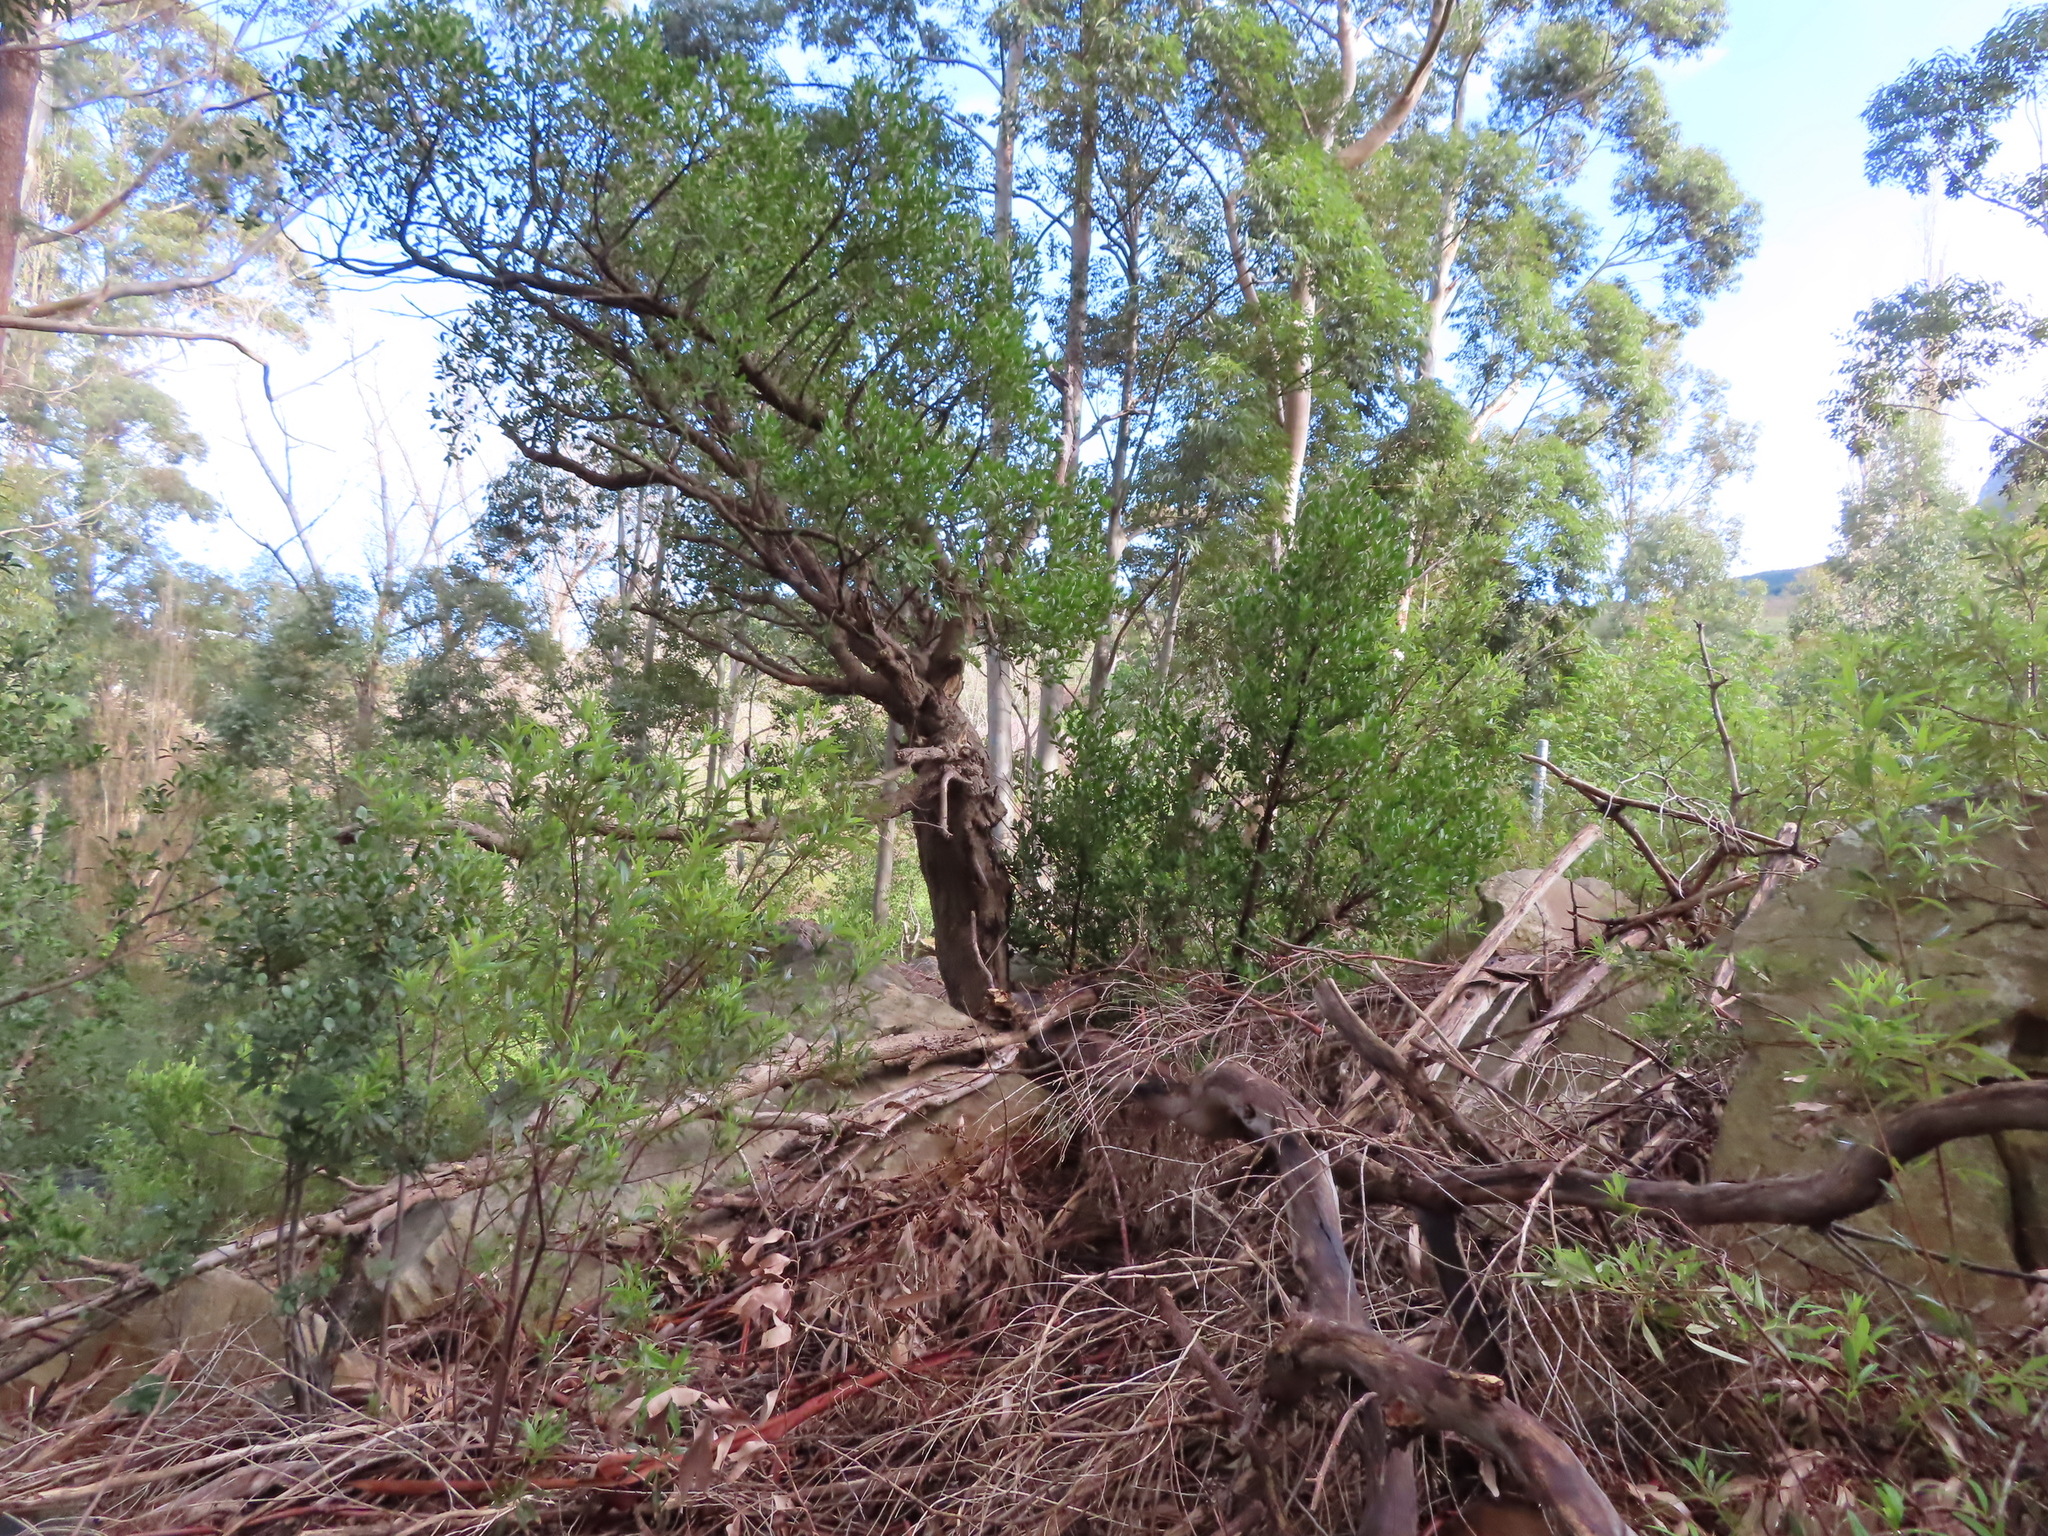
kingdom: Plantae
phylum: Tracheophyta
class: Magnoliopsida
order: Celastrales
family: Celastraceae
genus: Gymnosporia
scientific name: Gymnosporia laurina
